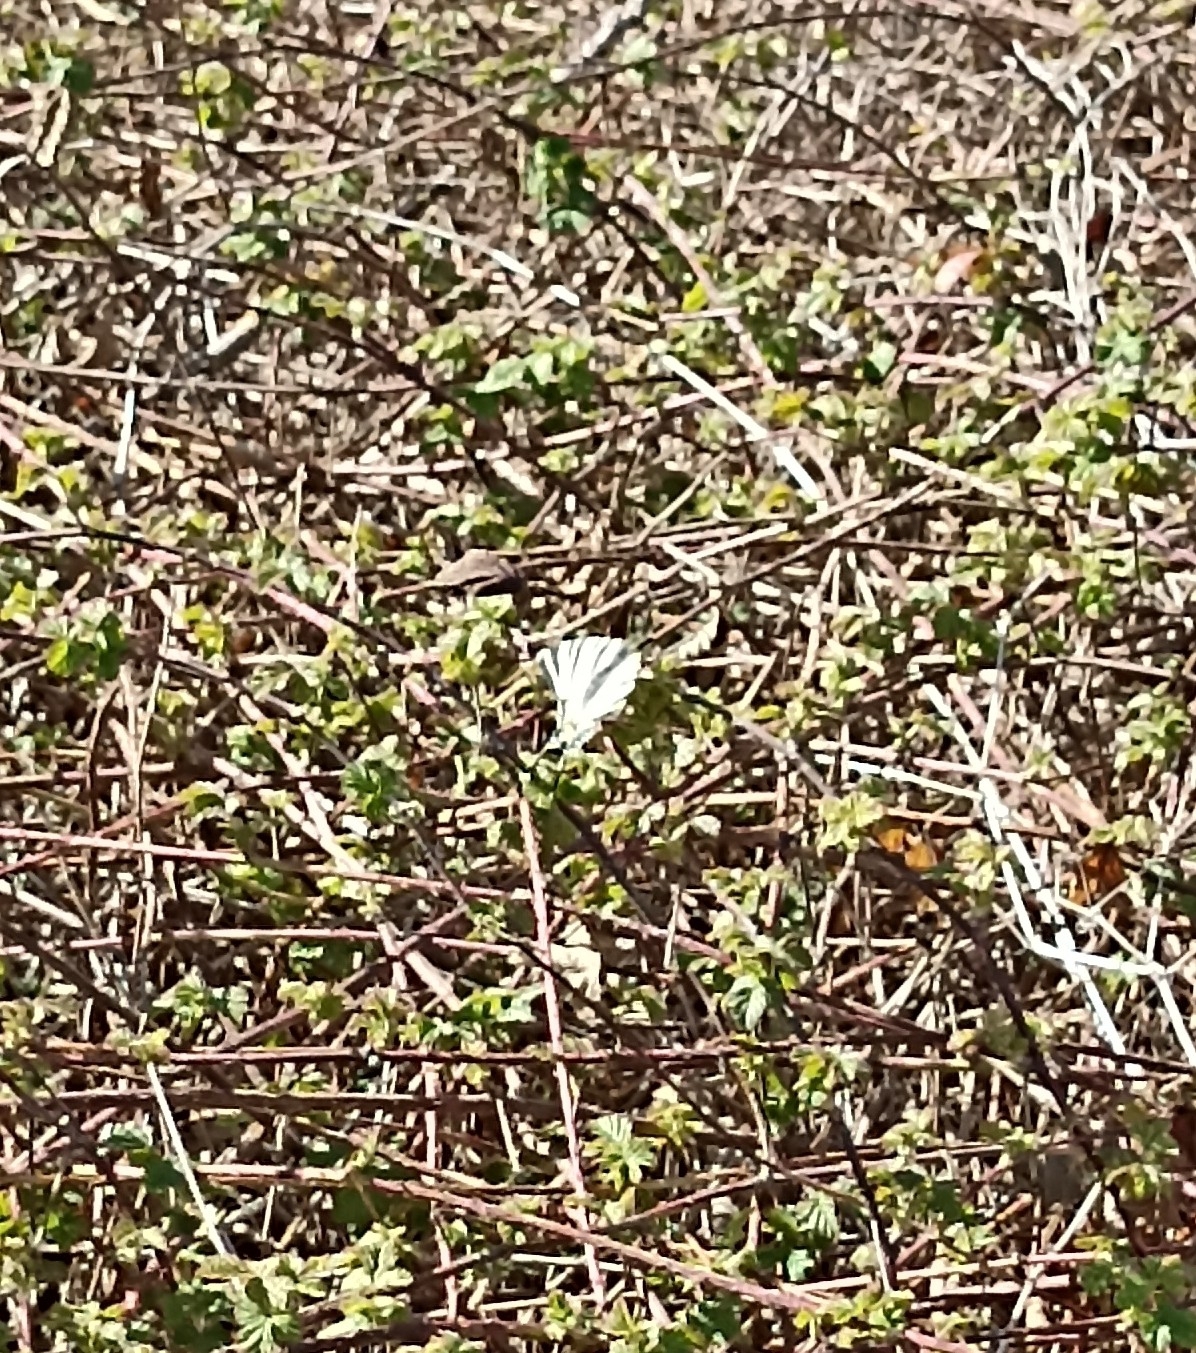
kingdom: Animalia
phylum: Arthropoda
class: Insecta
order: Lepidoptera
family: Papilionidae
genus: Iphiclides
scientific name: Iphiclides podalirius
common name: Scarce swallowtail
